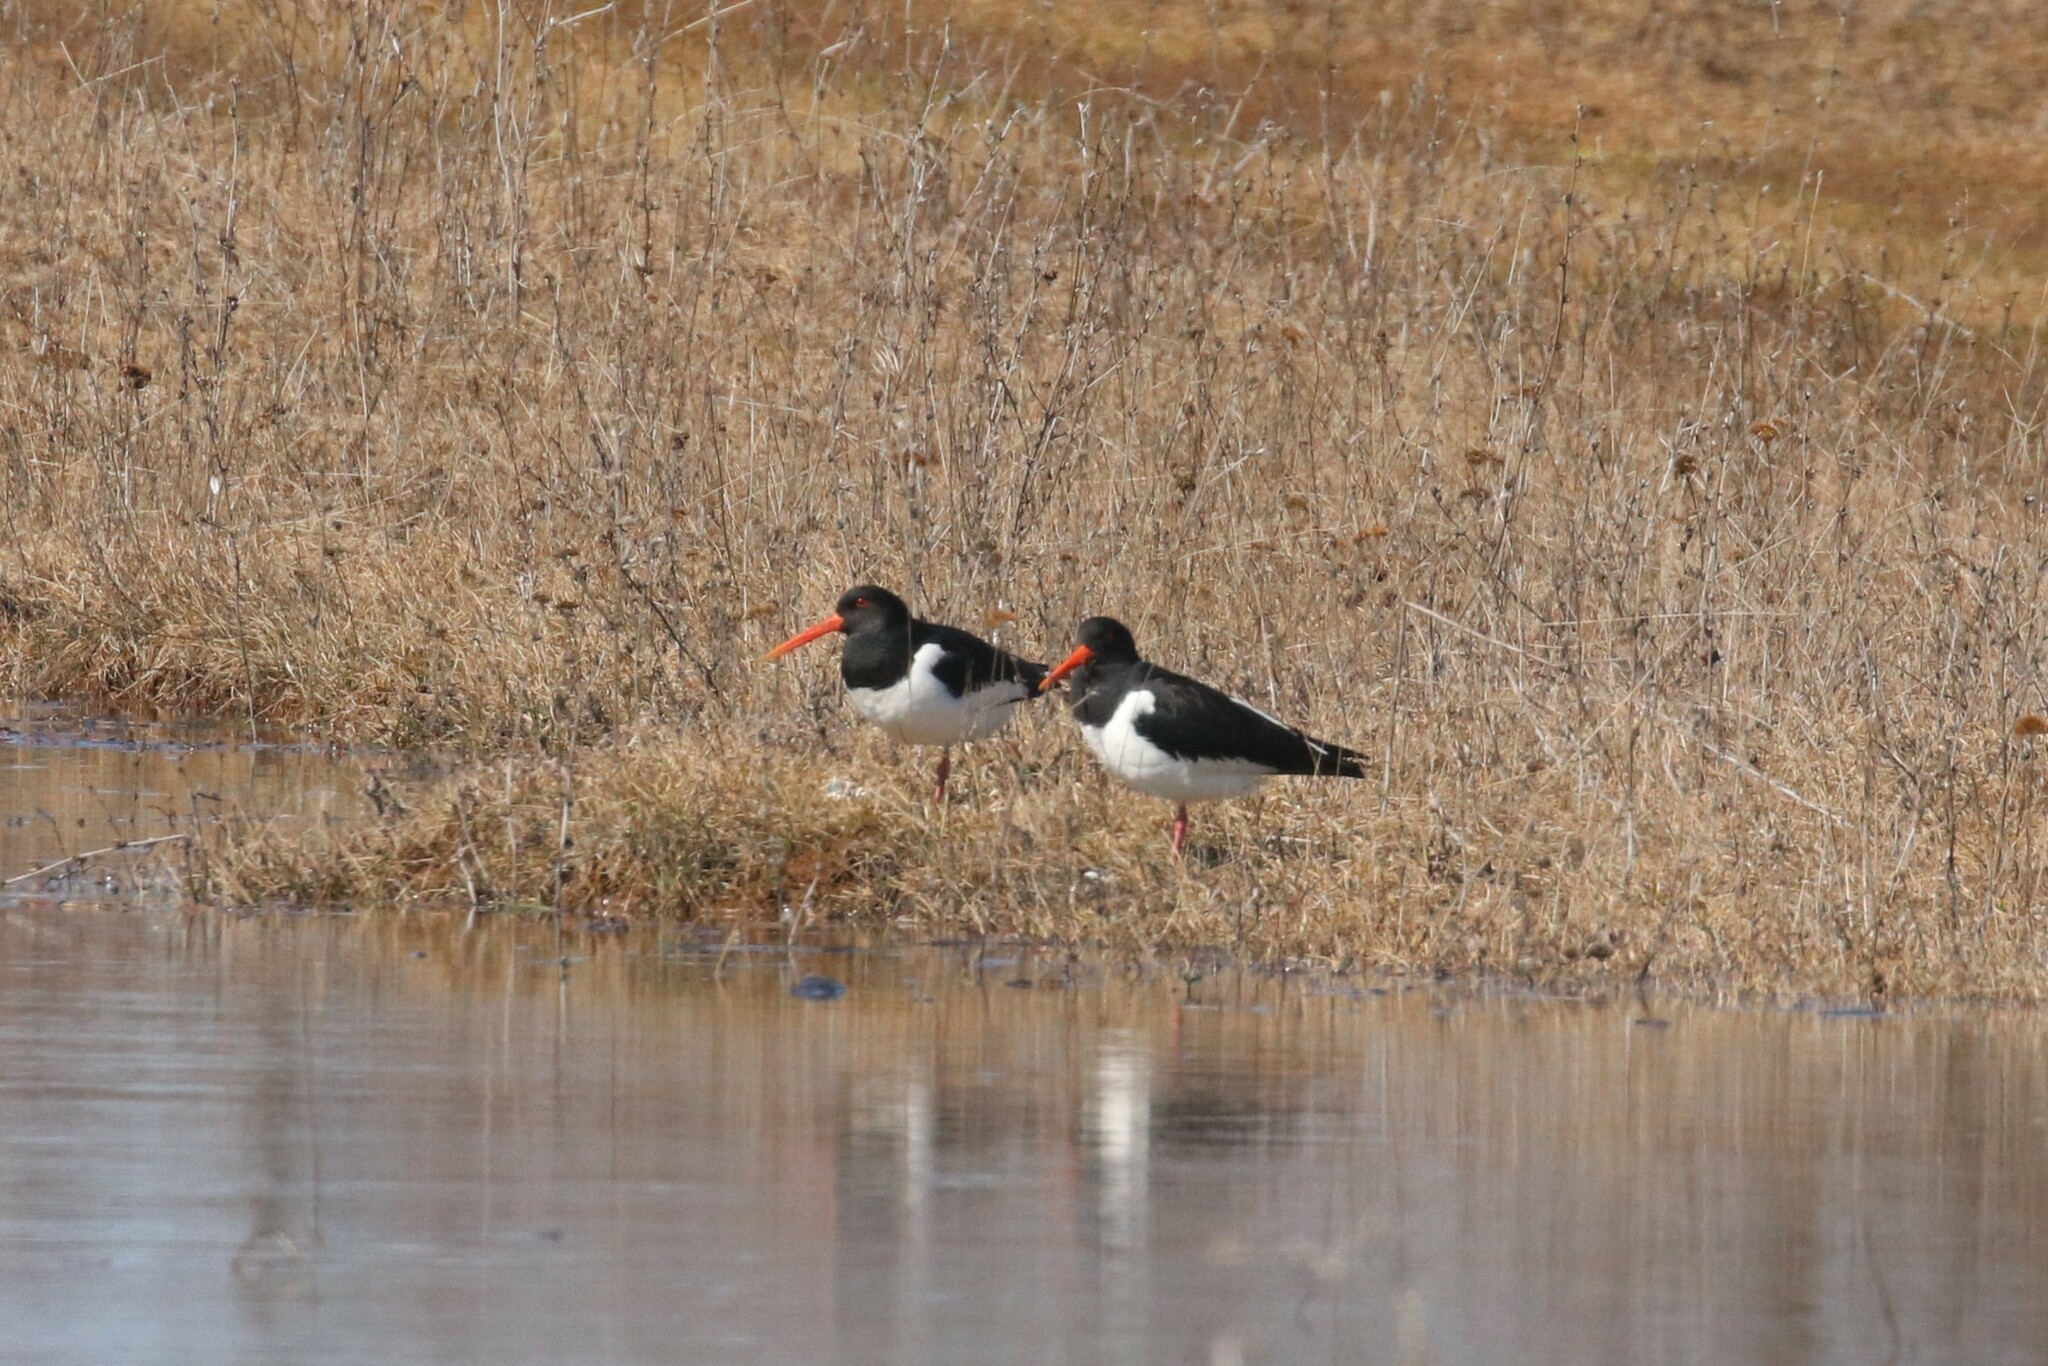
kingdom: Animalia
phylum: Chordata
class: Aves
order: Charadriiformes
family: Haematopodidae
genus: Haematopus
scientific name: Haematopus ostralegus
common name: Eurasian oystercatcher
